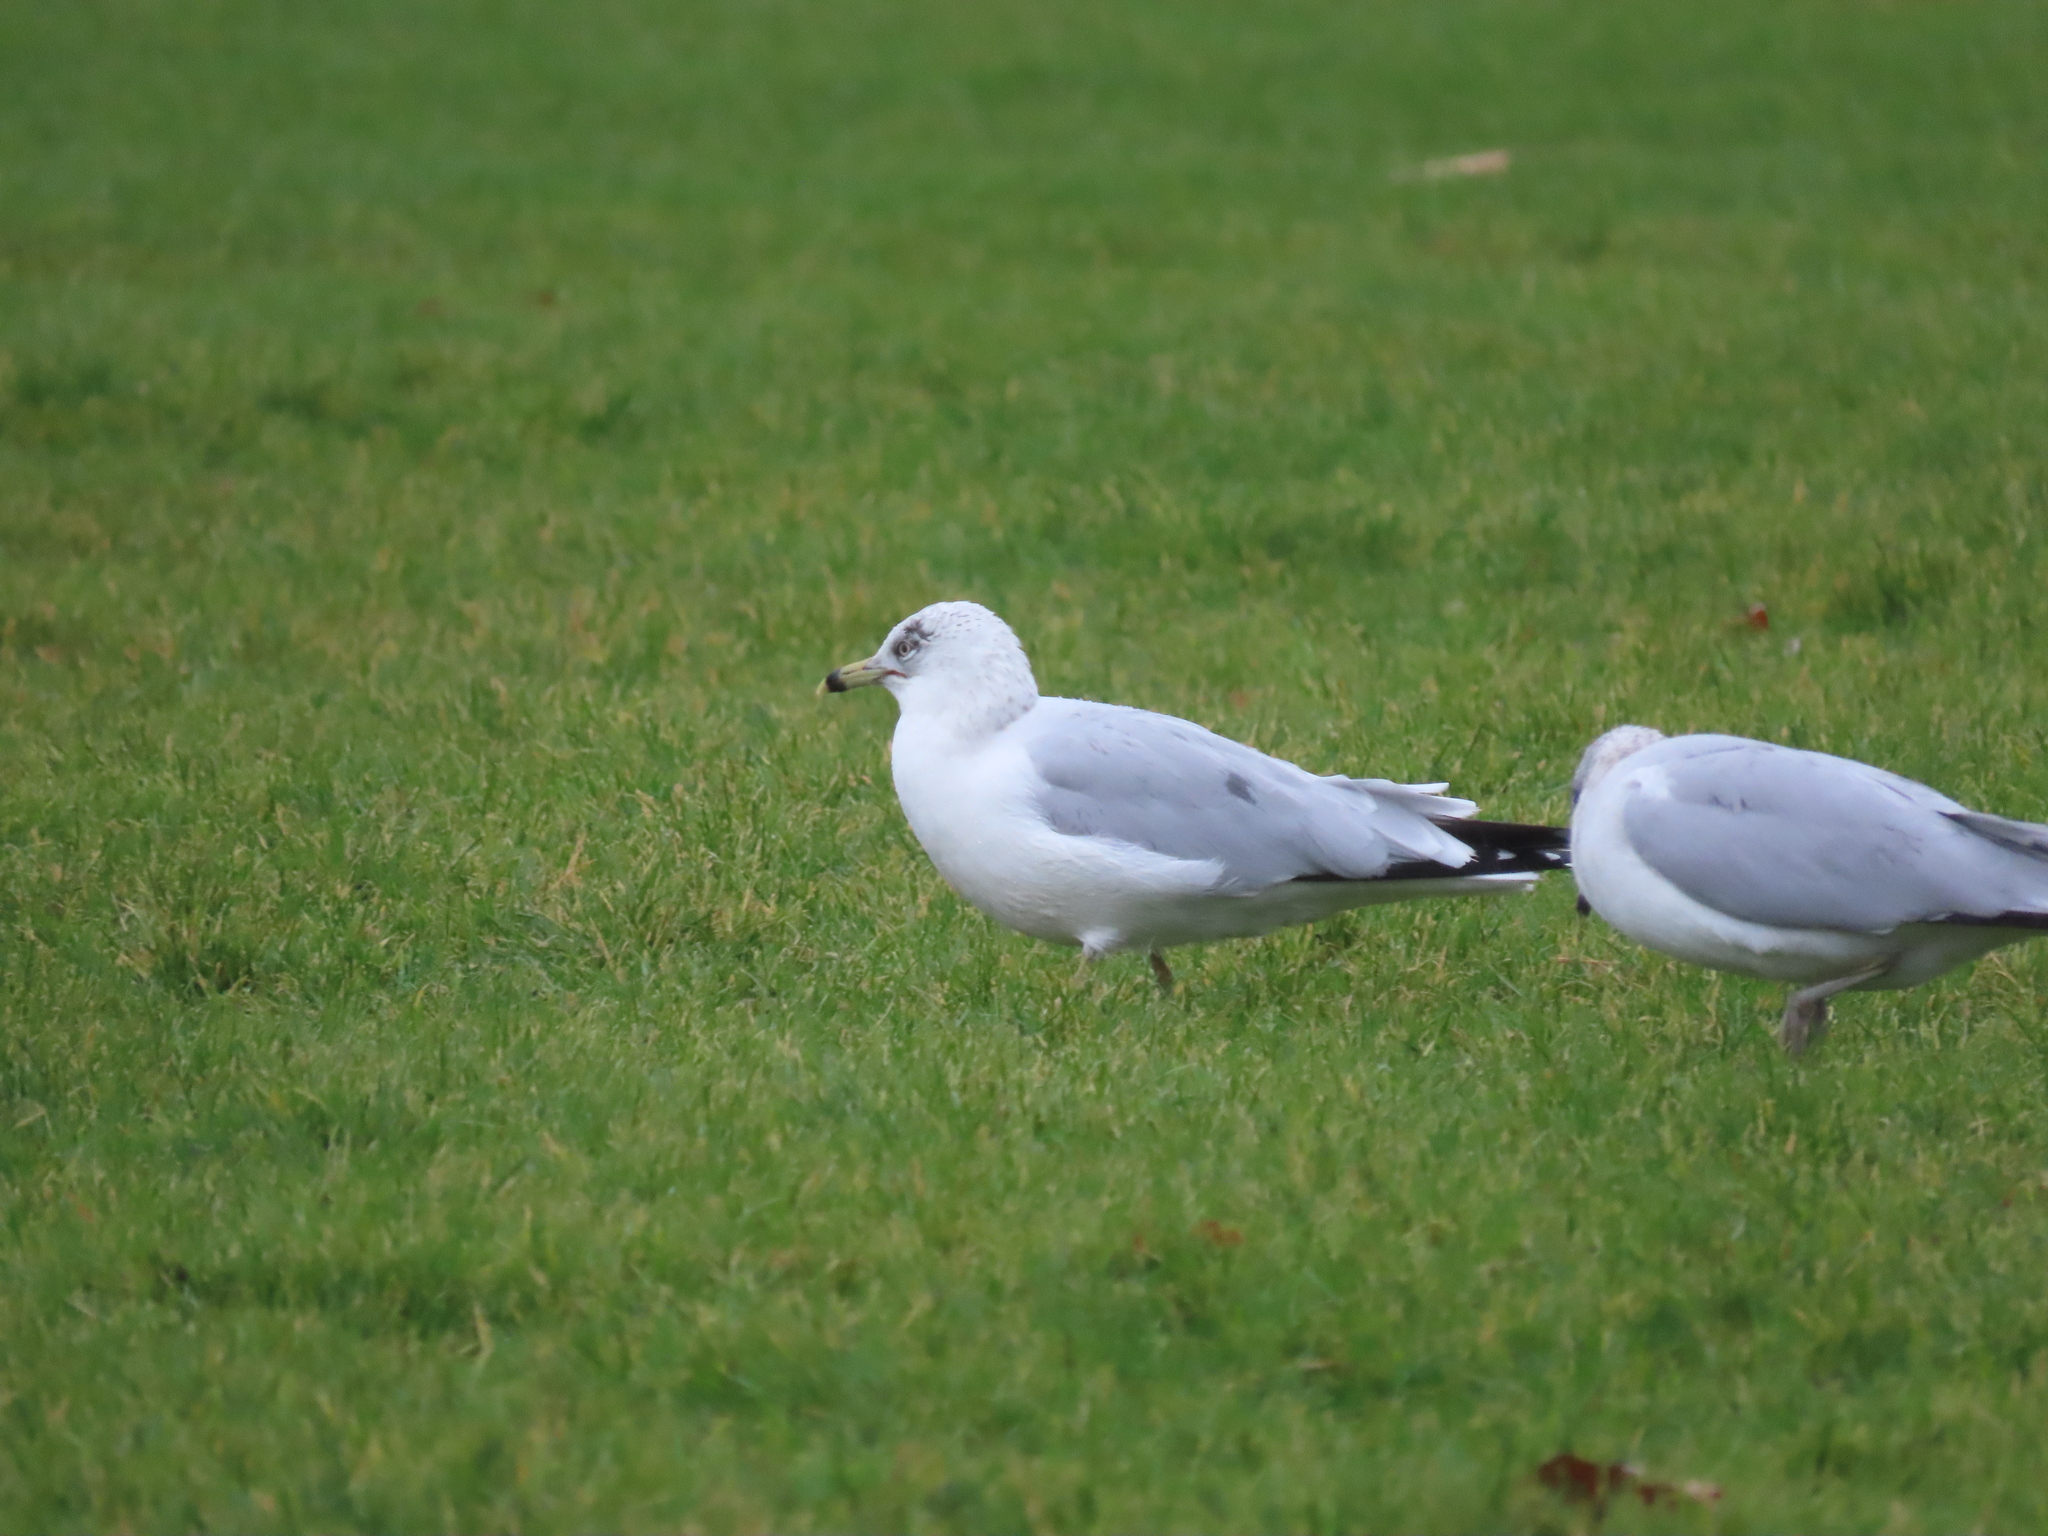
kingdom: Animalia
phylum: Chordata
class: Aves
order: Charadriiformes
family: Laridae
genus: Larus
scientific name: Larus delawarensis
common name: Ring-billed gull
